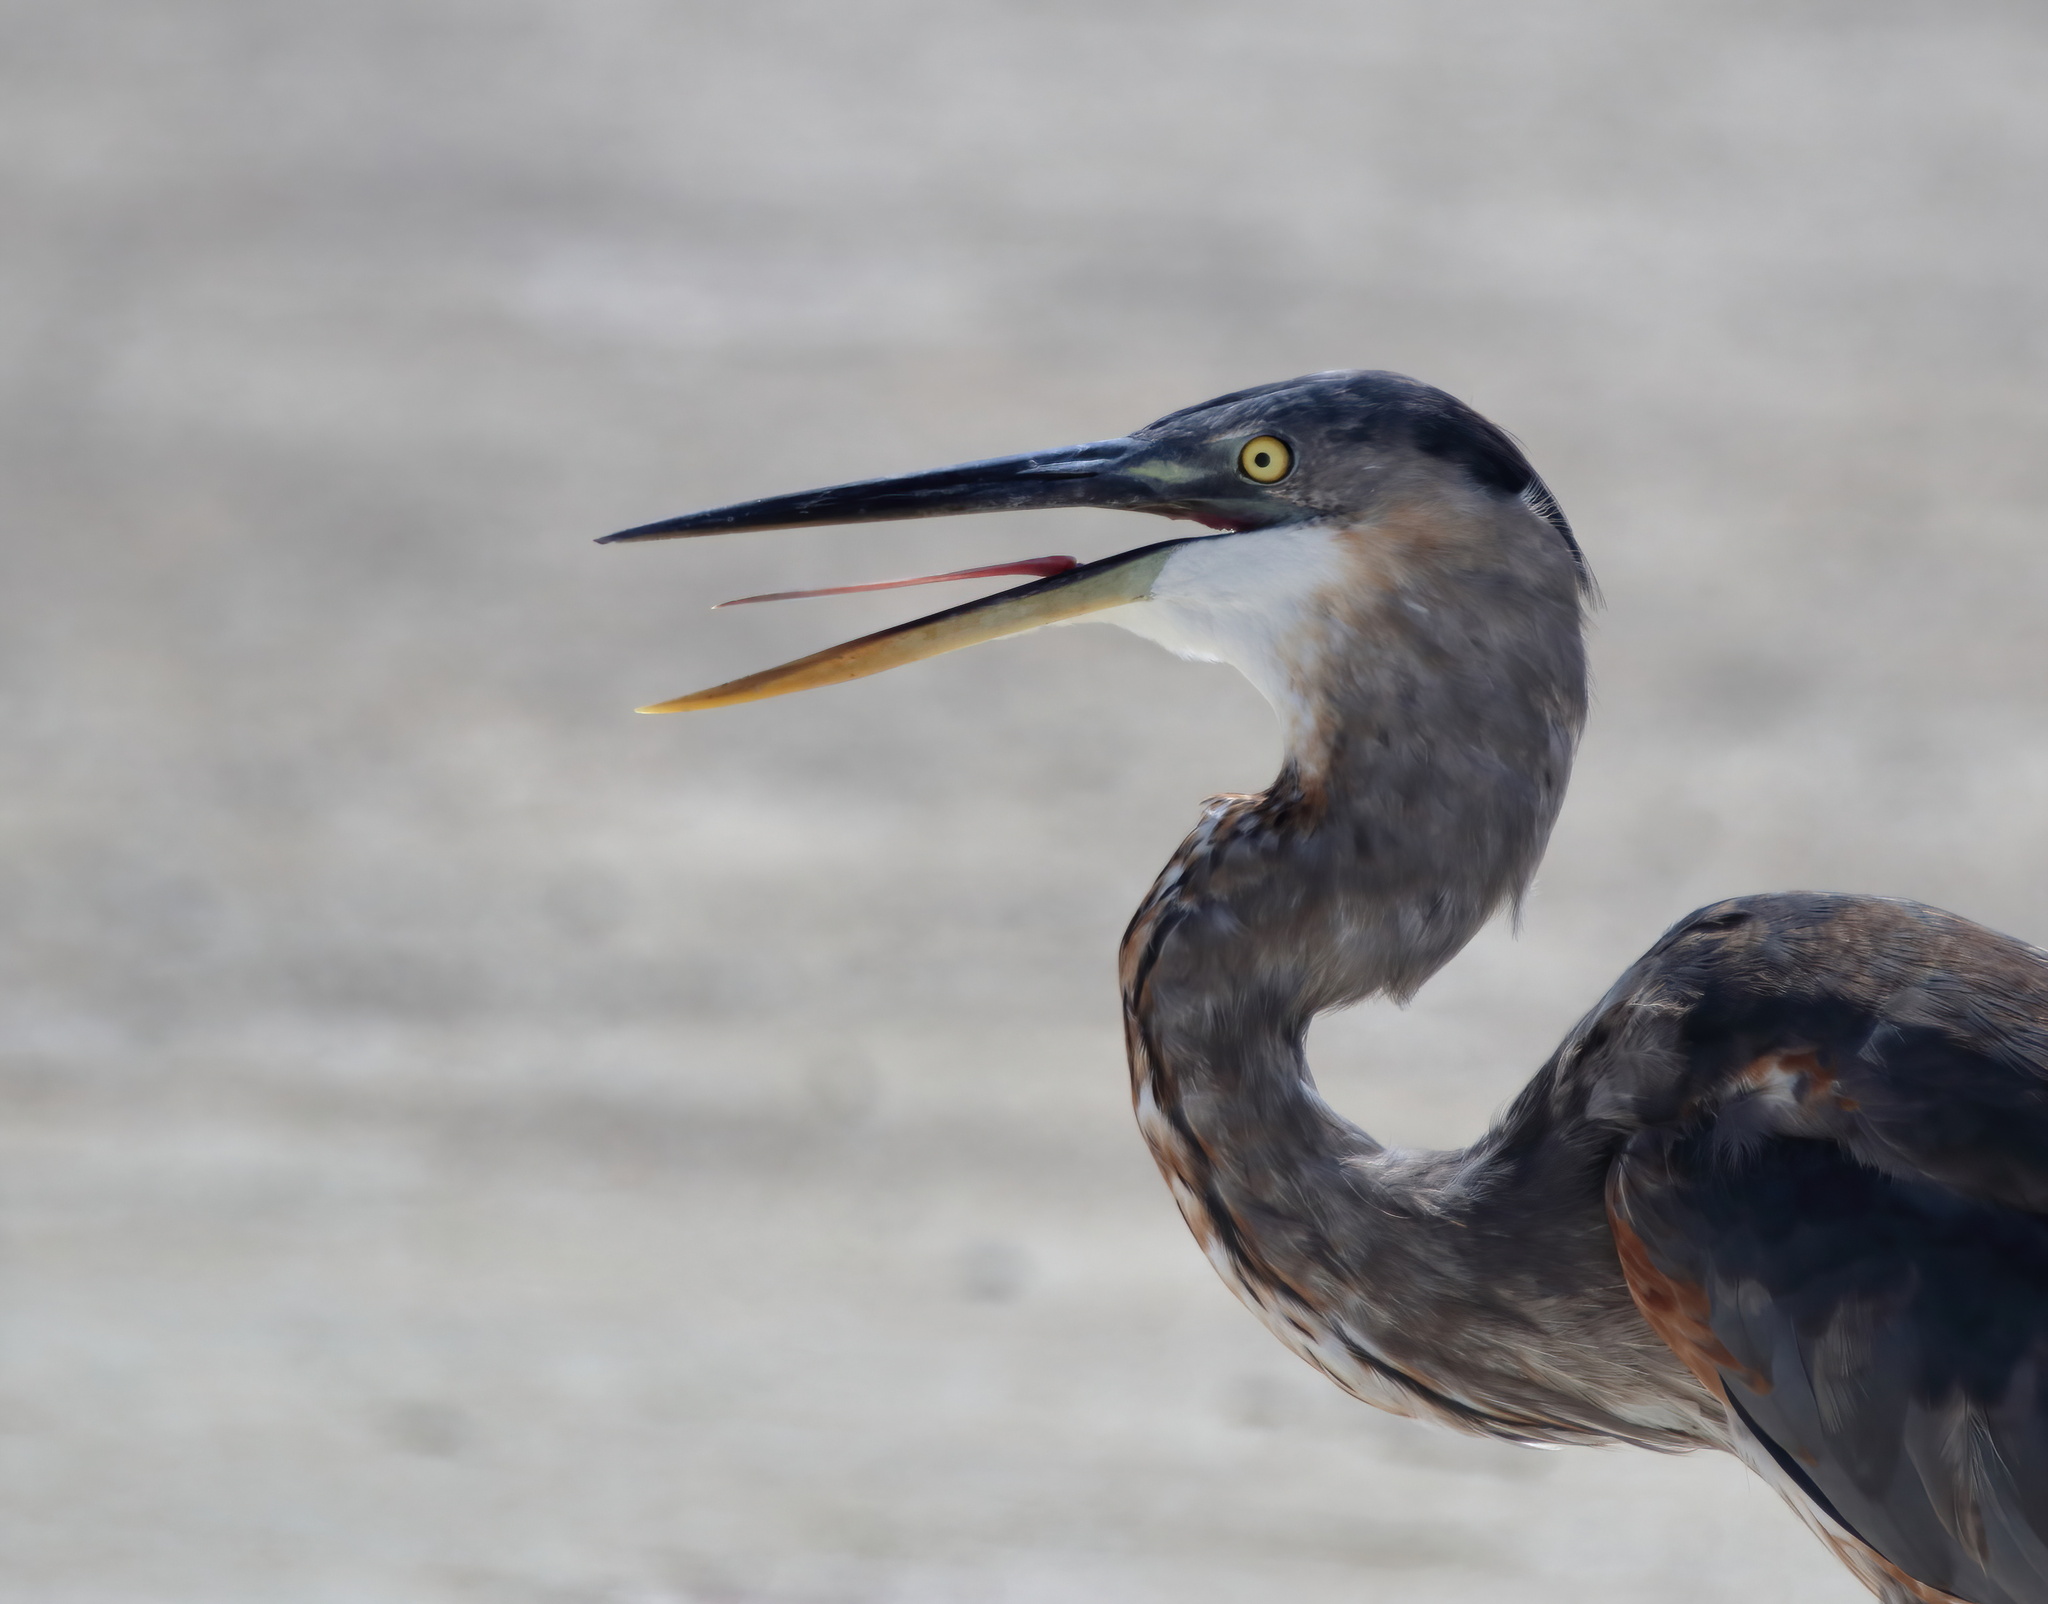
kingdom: Animalia
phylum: Chordata
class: Aves
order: Pelecaniformes
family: Ardeidae
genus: Ardea
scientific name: Ardea herodias
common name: Great blue heron
